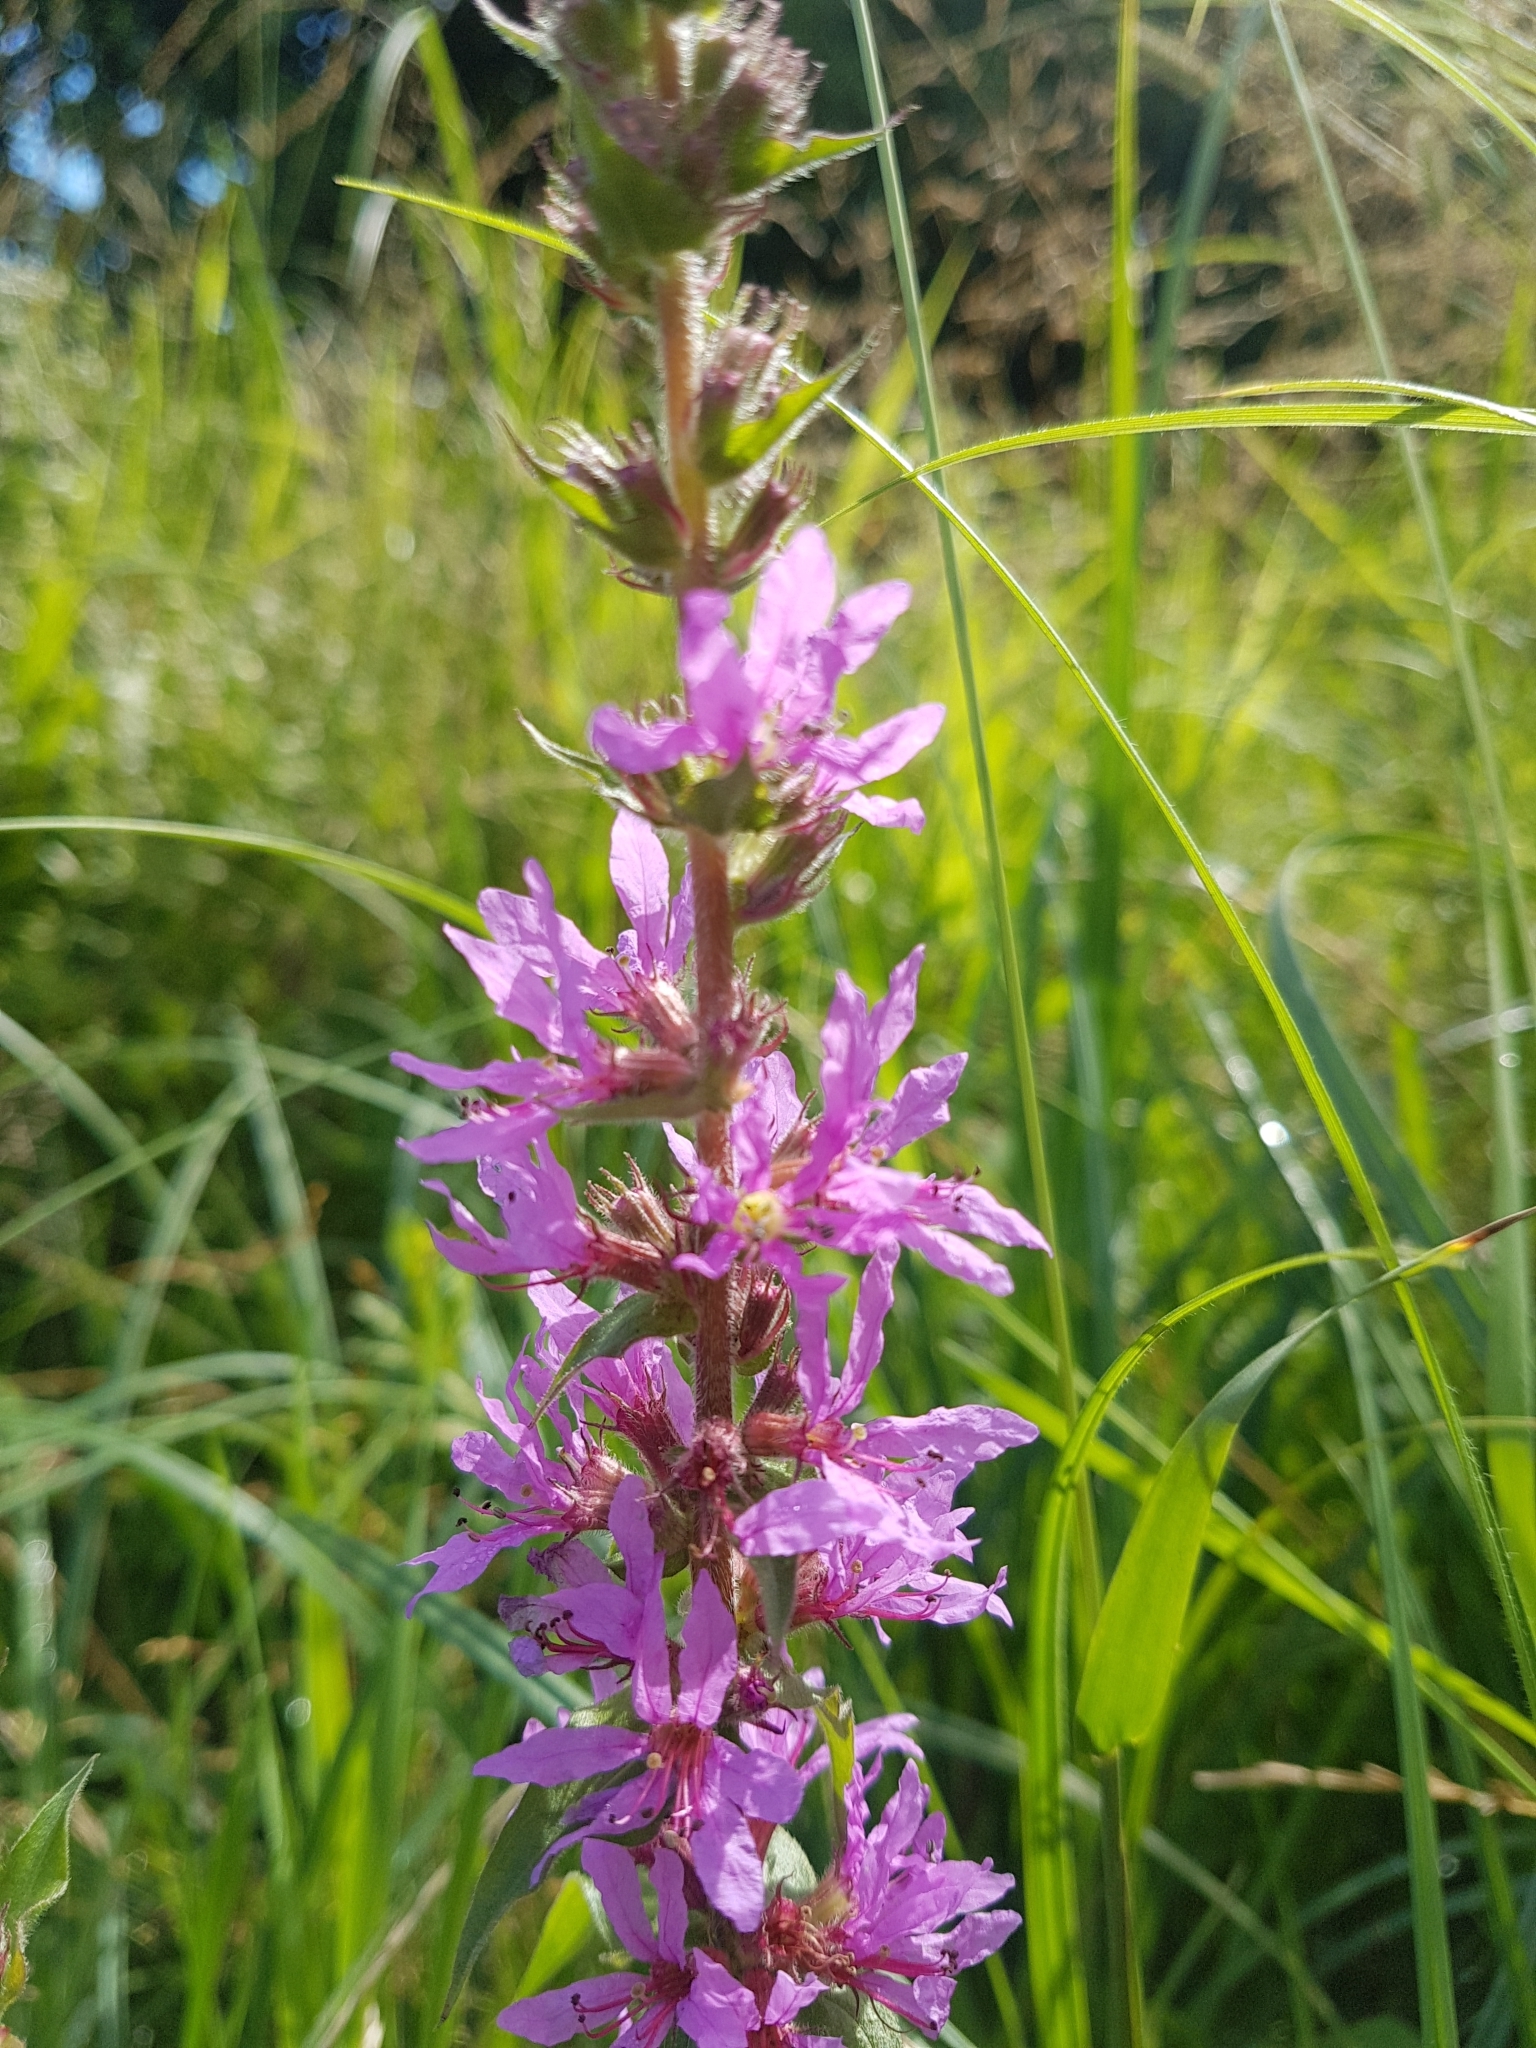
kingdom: Plantae
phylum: Tracheophyta
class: Magnoliopsida
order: Myrtales
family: Lythraceae
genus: Lythrum
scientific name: Lythrum salicaria
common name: Purple loosestrife
